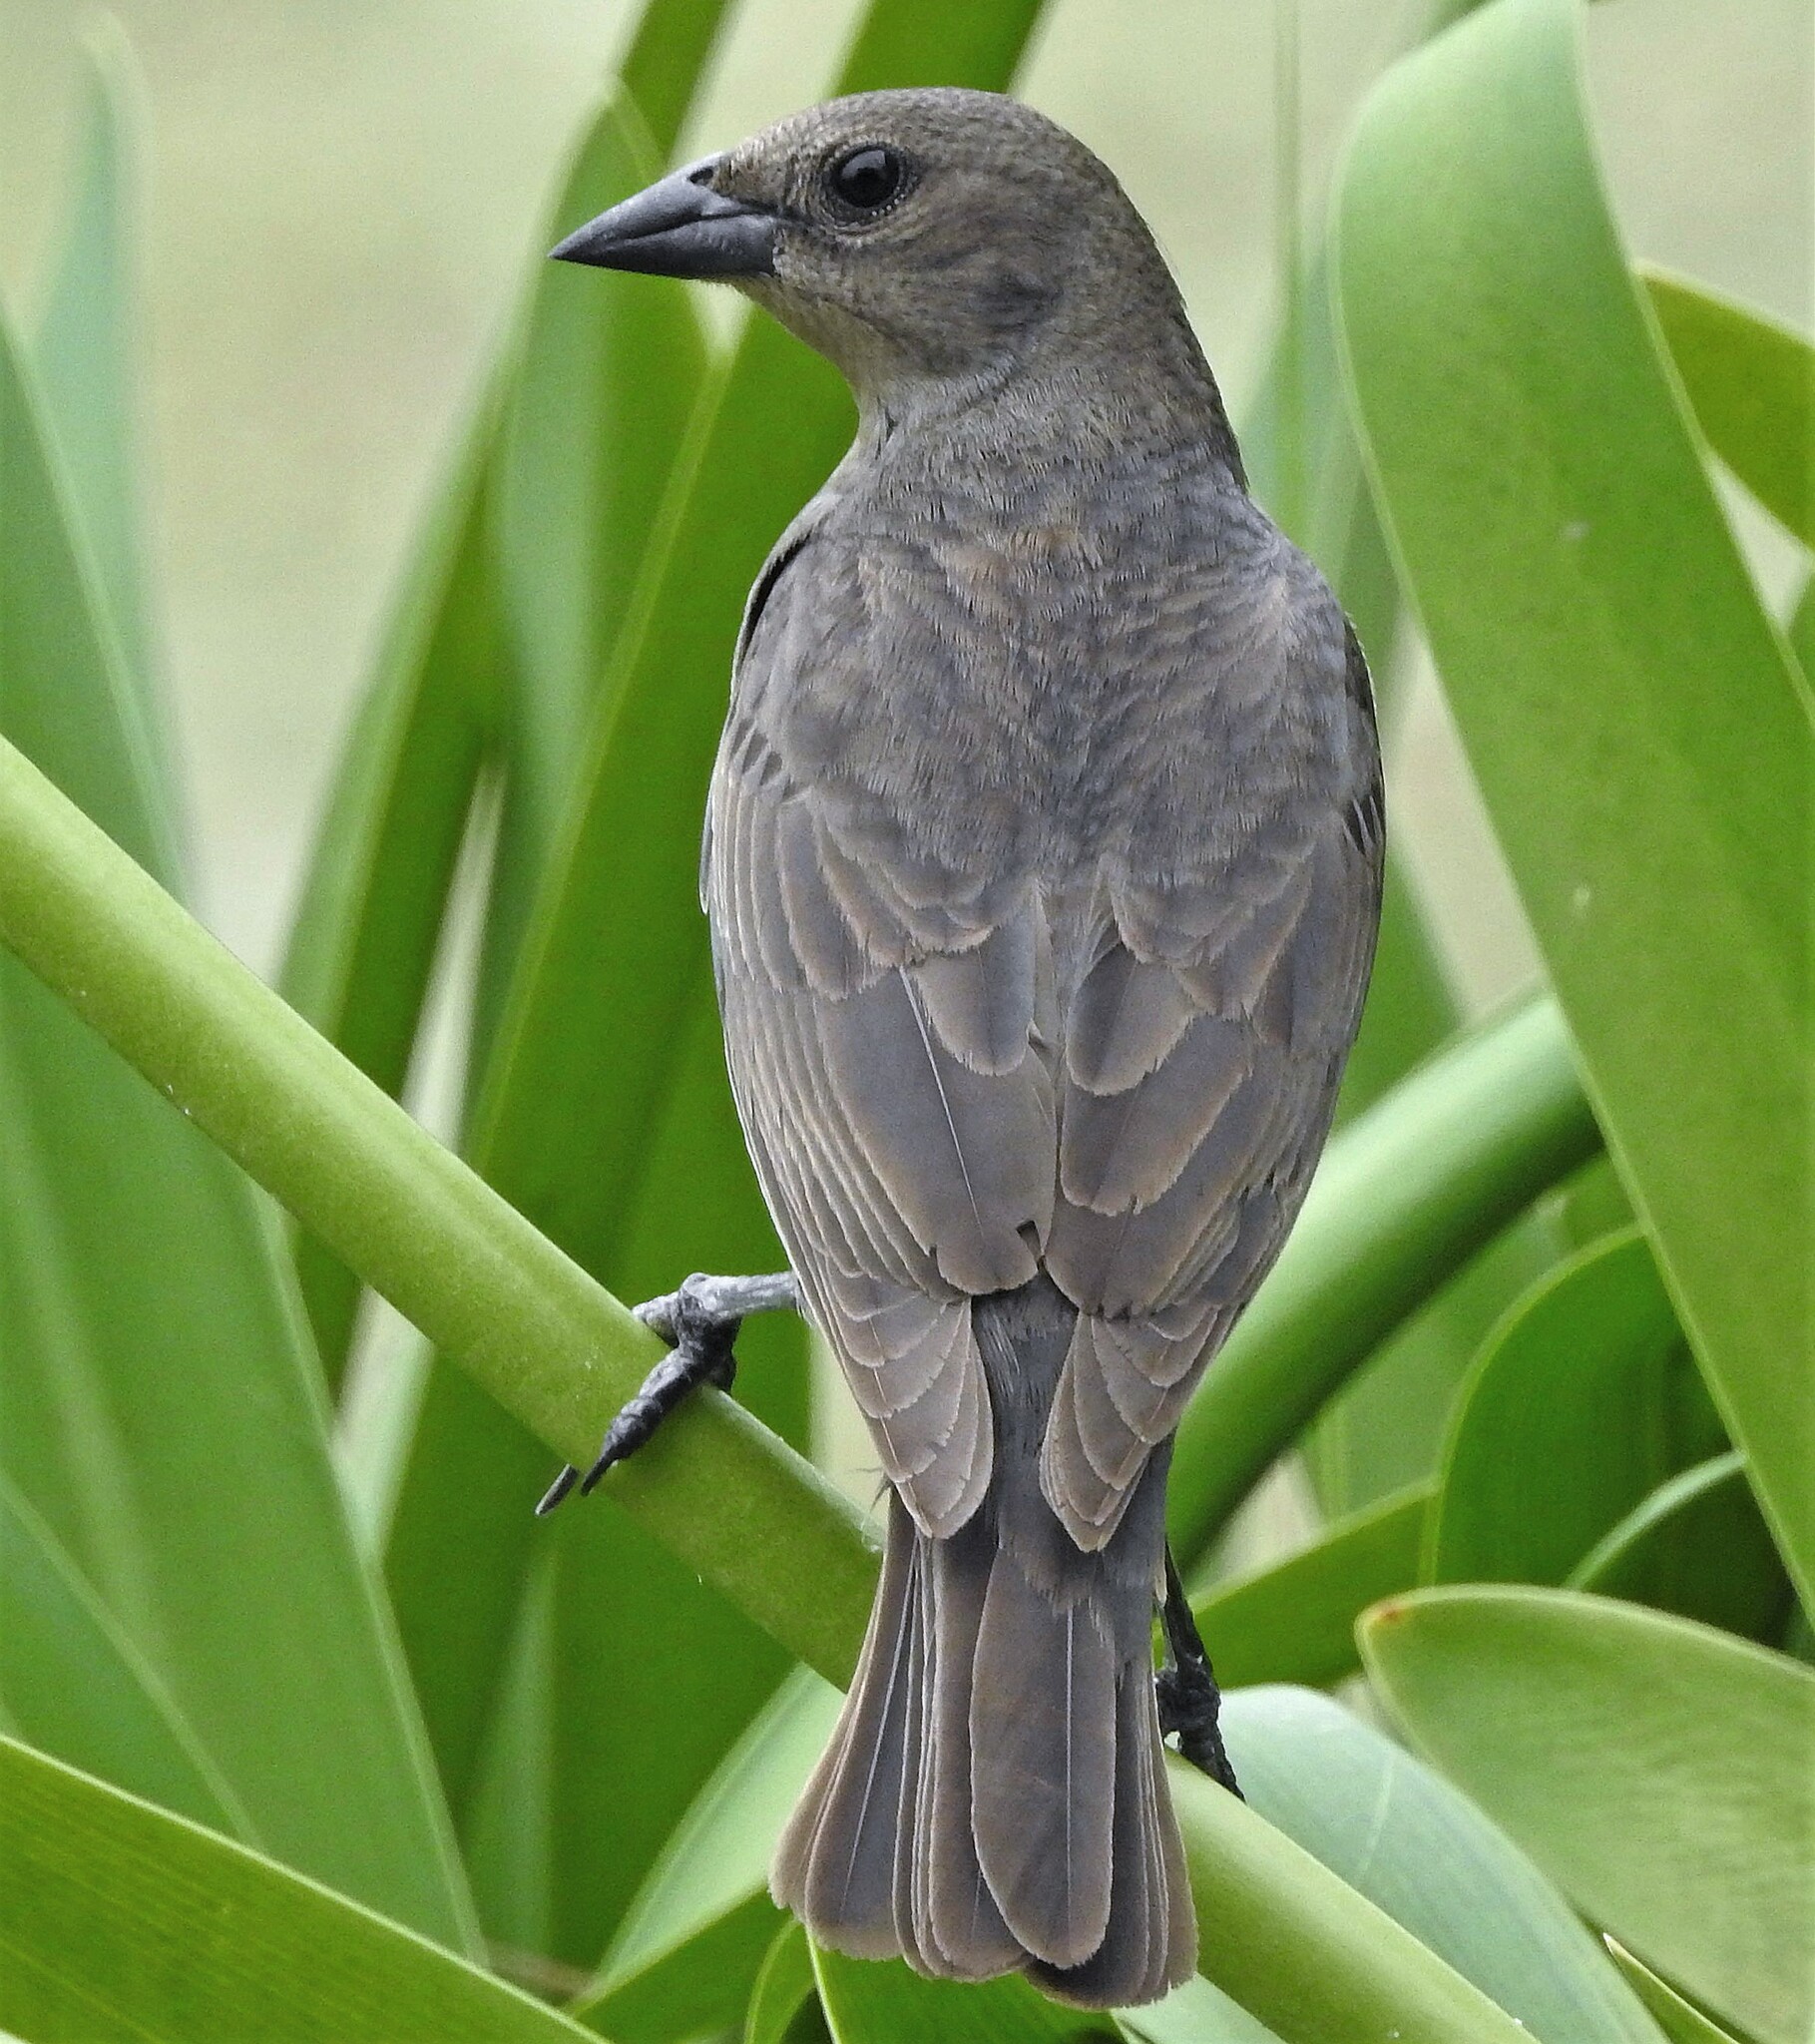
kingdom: Animalia
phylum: Chordata
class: Aves
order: Passeriformes
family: Icteridae
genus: Molothrus
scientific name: Molothrus bonariensis
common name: Shiny cowbird
